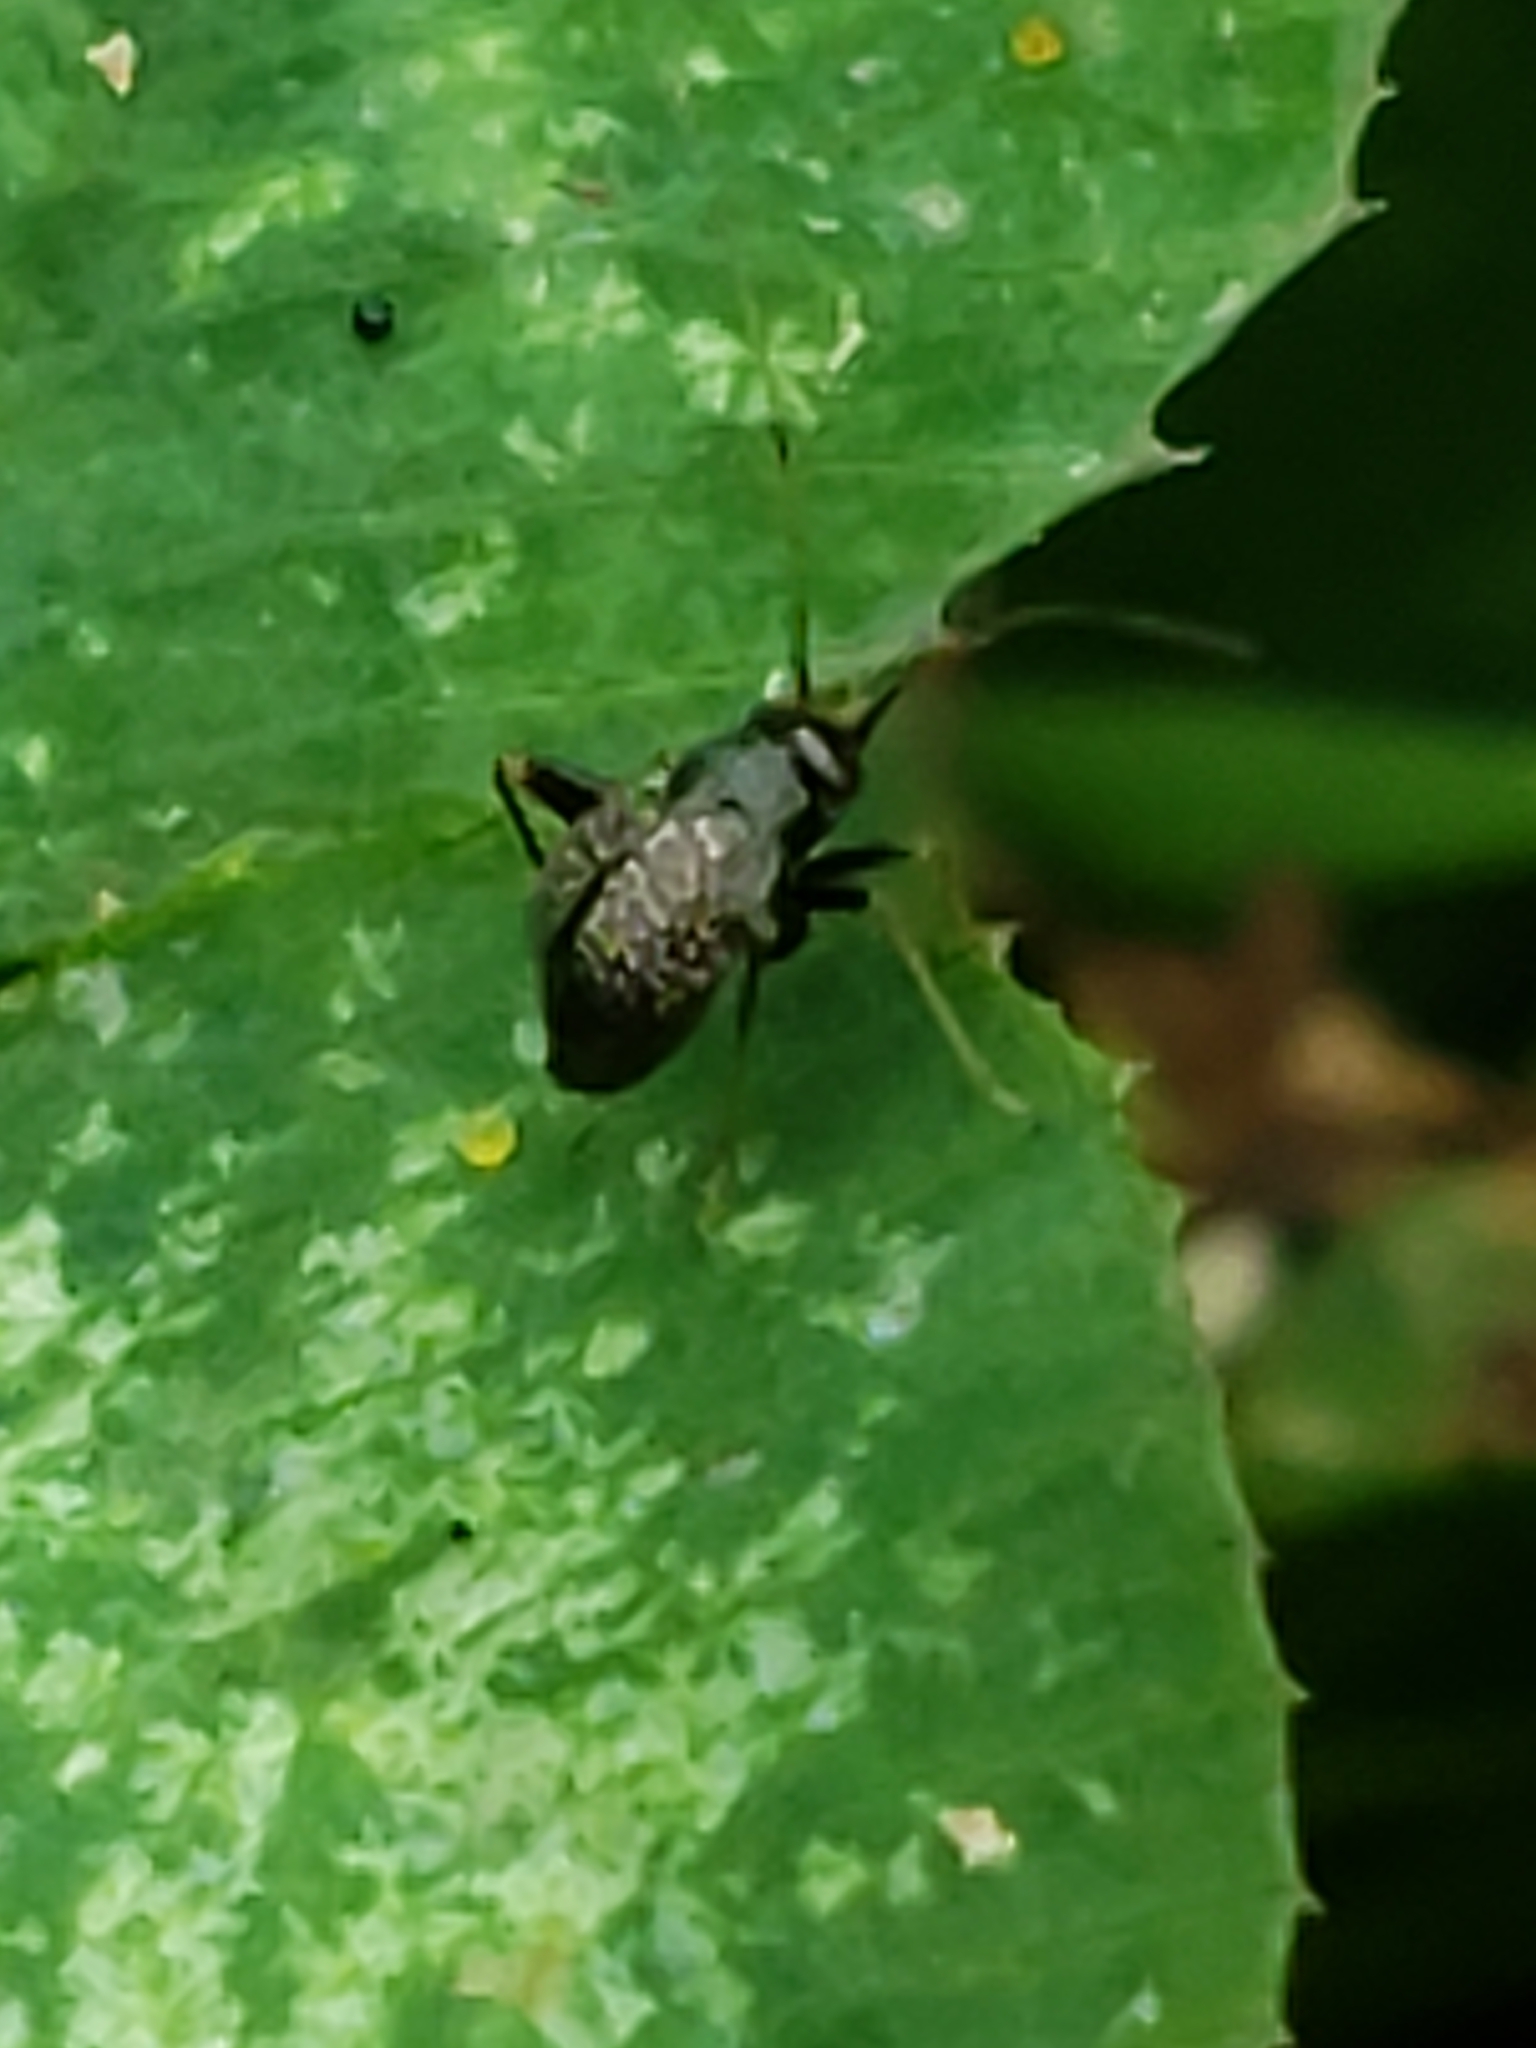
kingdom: Animalia
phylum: Arthropoda
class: Insecta
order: Hemiptera
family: Miridae
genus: Microtechnites
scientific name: Microtechnites bractatus
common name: Garden fleahopper
